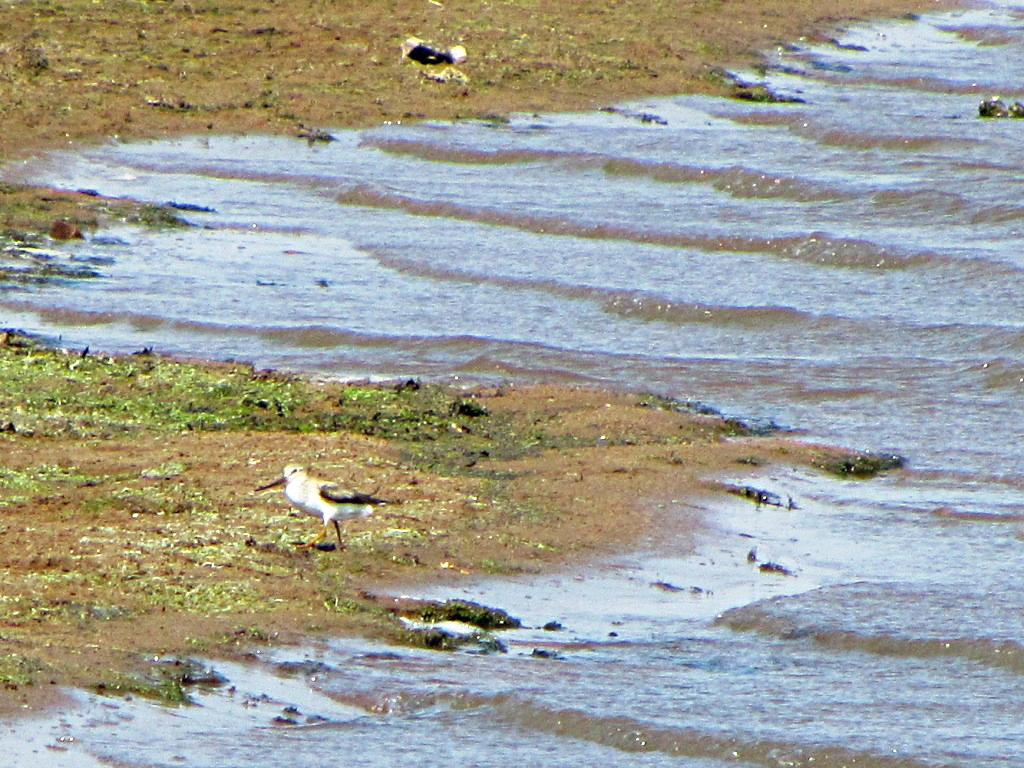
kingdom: Animalia
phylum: Chordata
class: Aves
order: Charadriiformes
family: Scolopacidae
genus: Xenus
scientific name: Xenus cinereus
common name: Terek sandpiper
